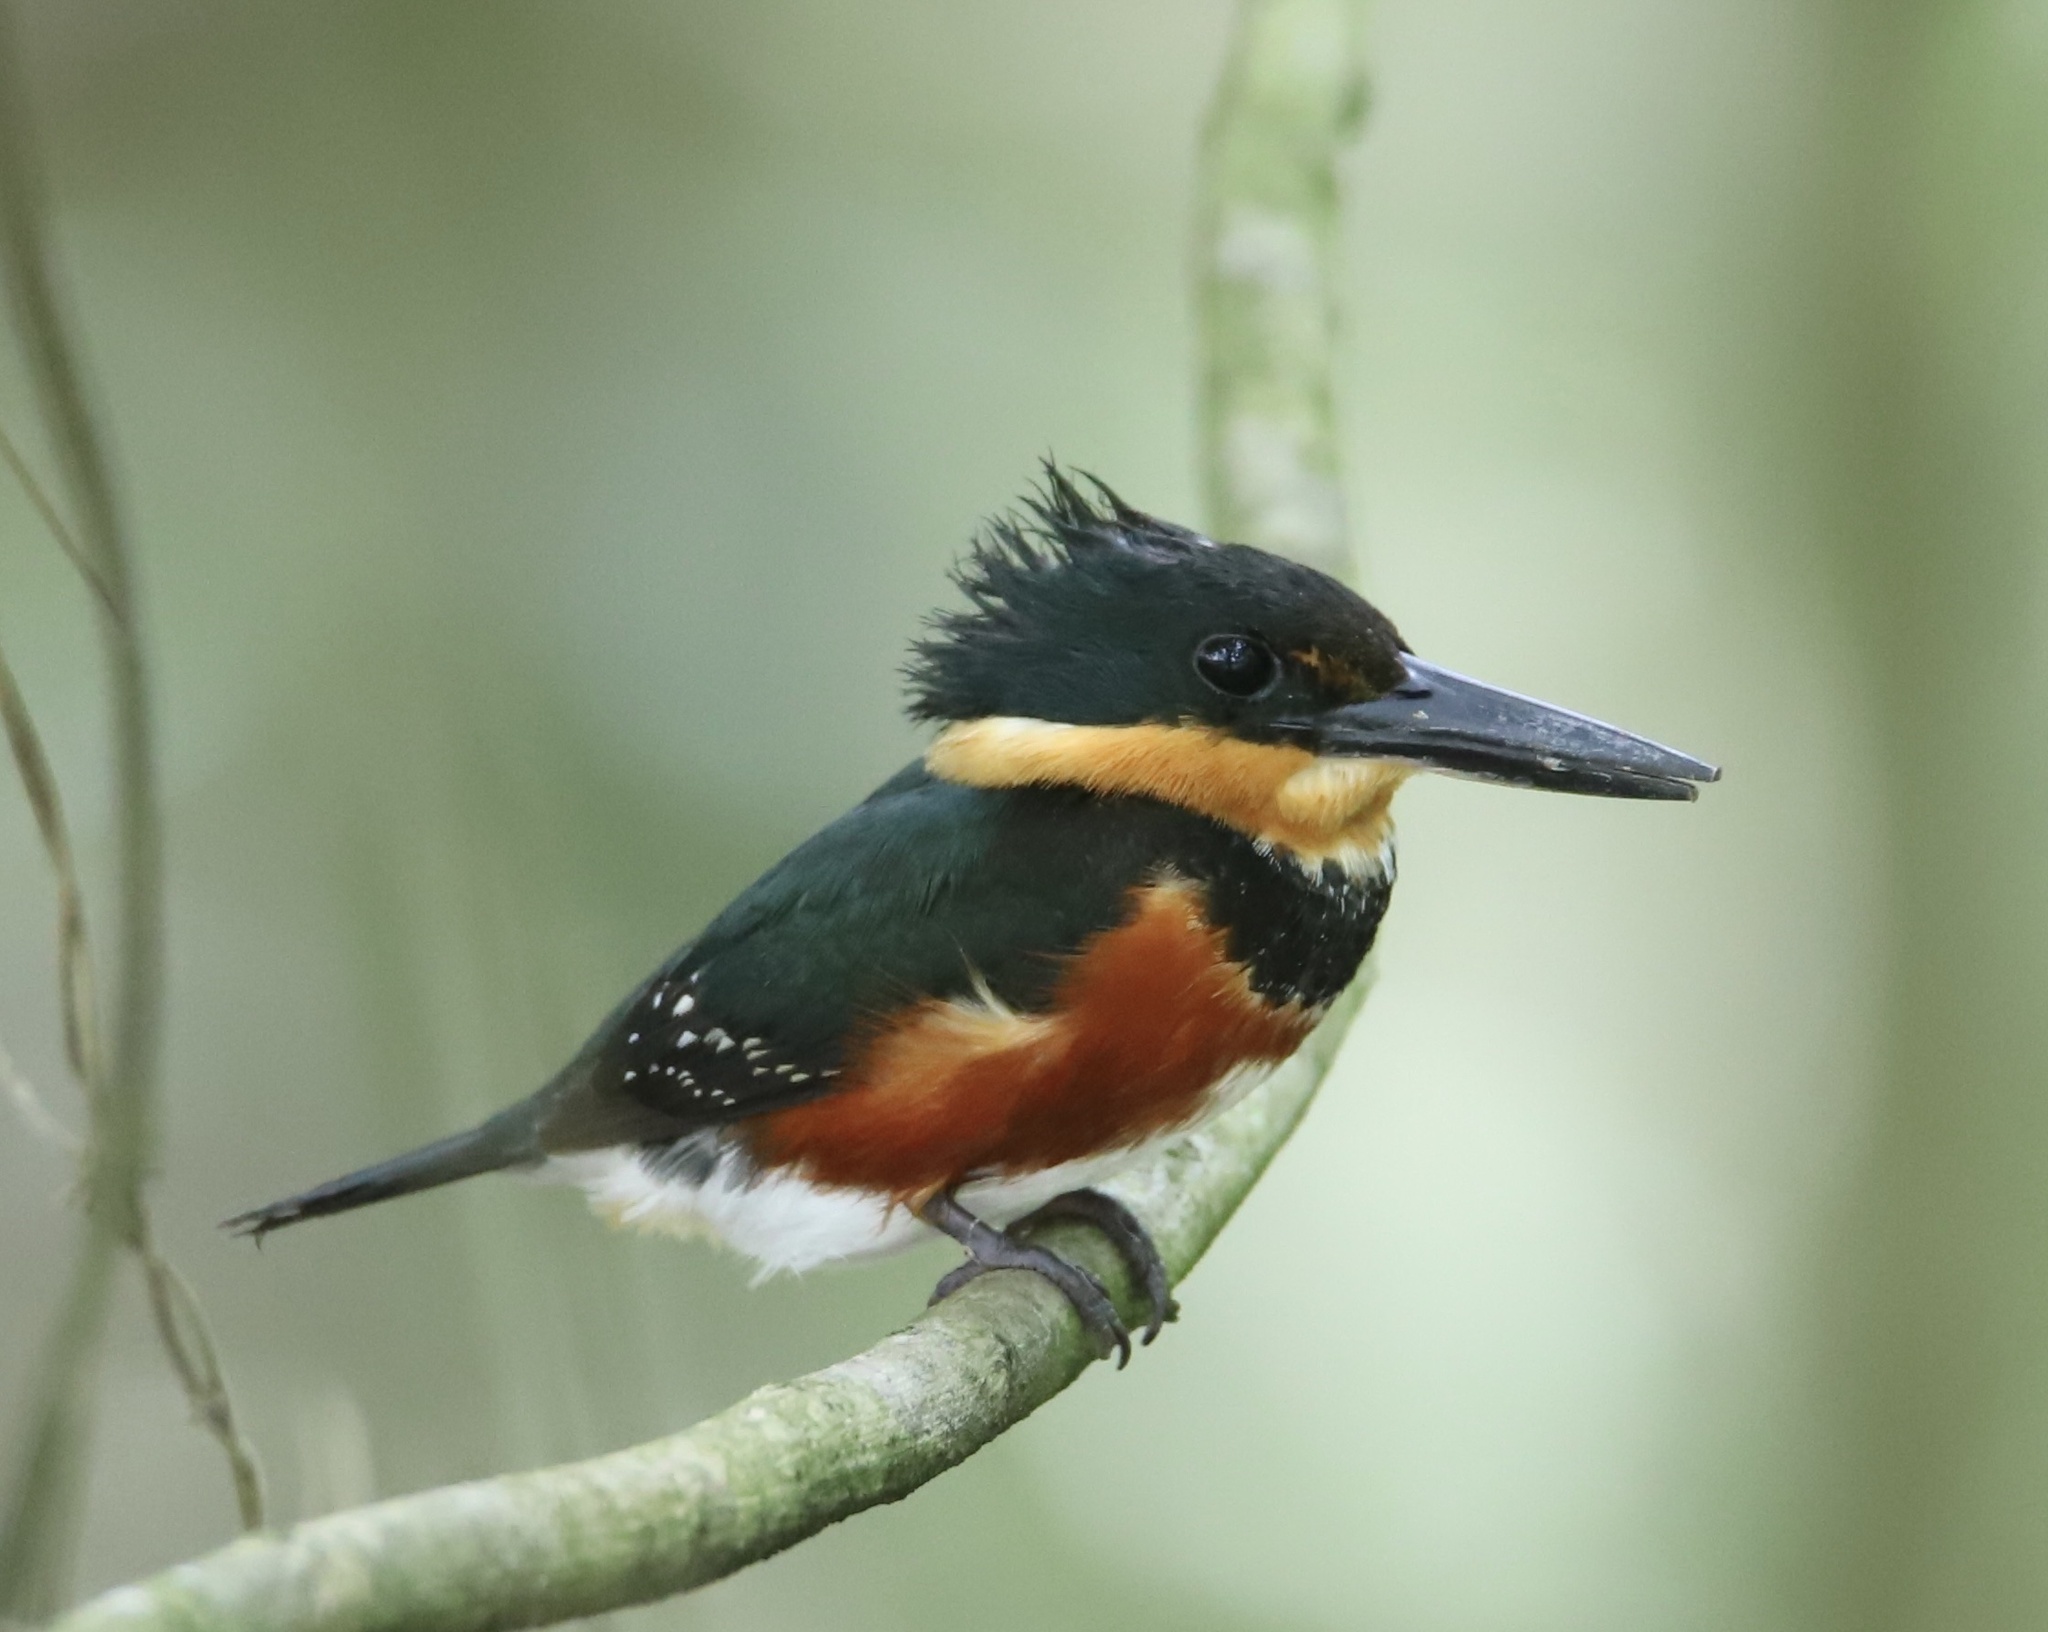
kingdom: Animalia
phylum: Chordata
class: Aves
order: Coraciiformes
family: Alcedinidae
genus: Chloroceryle
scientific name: Chloroceryle aenea
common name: American pygmy kingfisher
